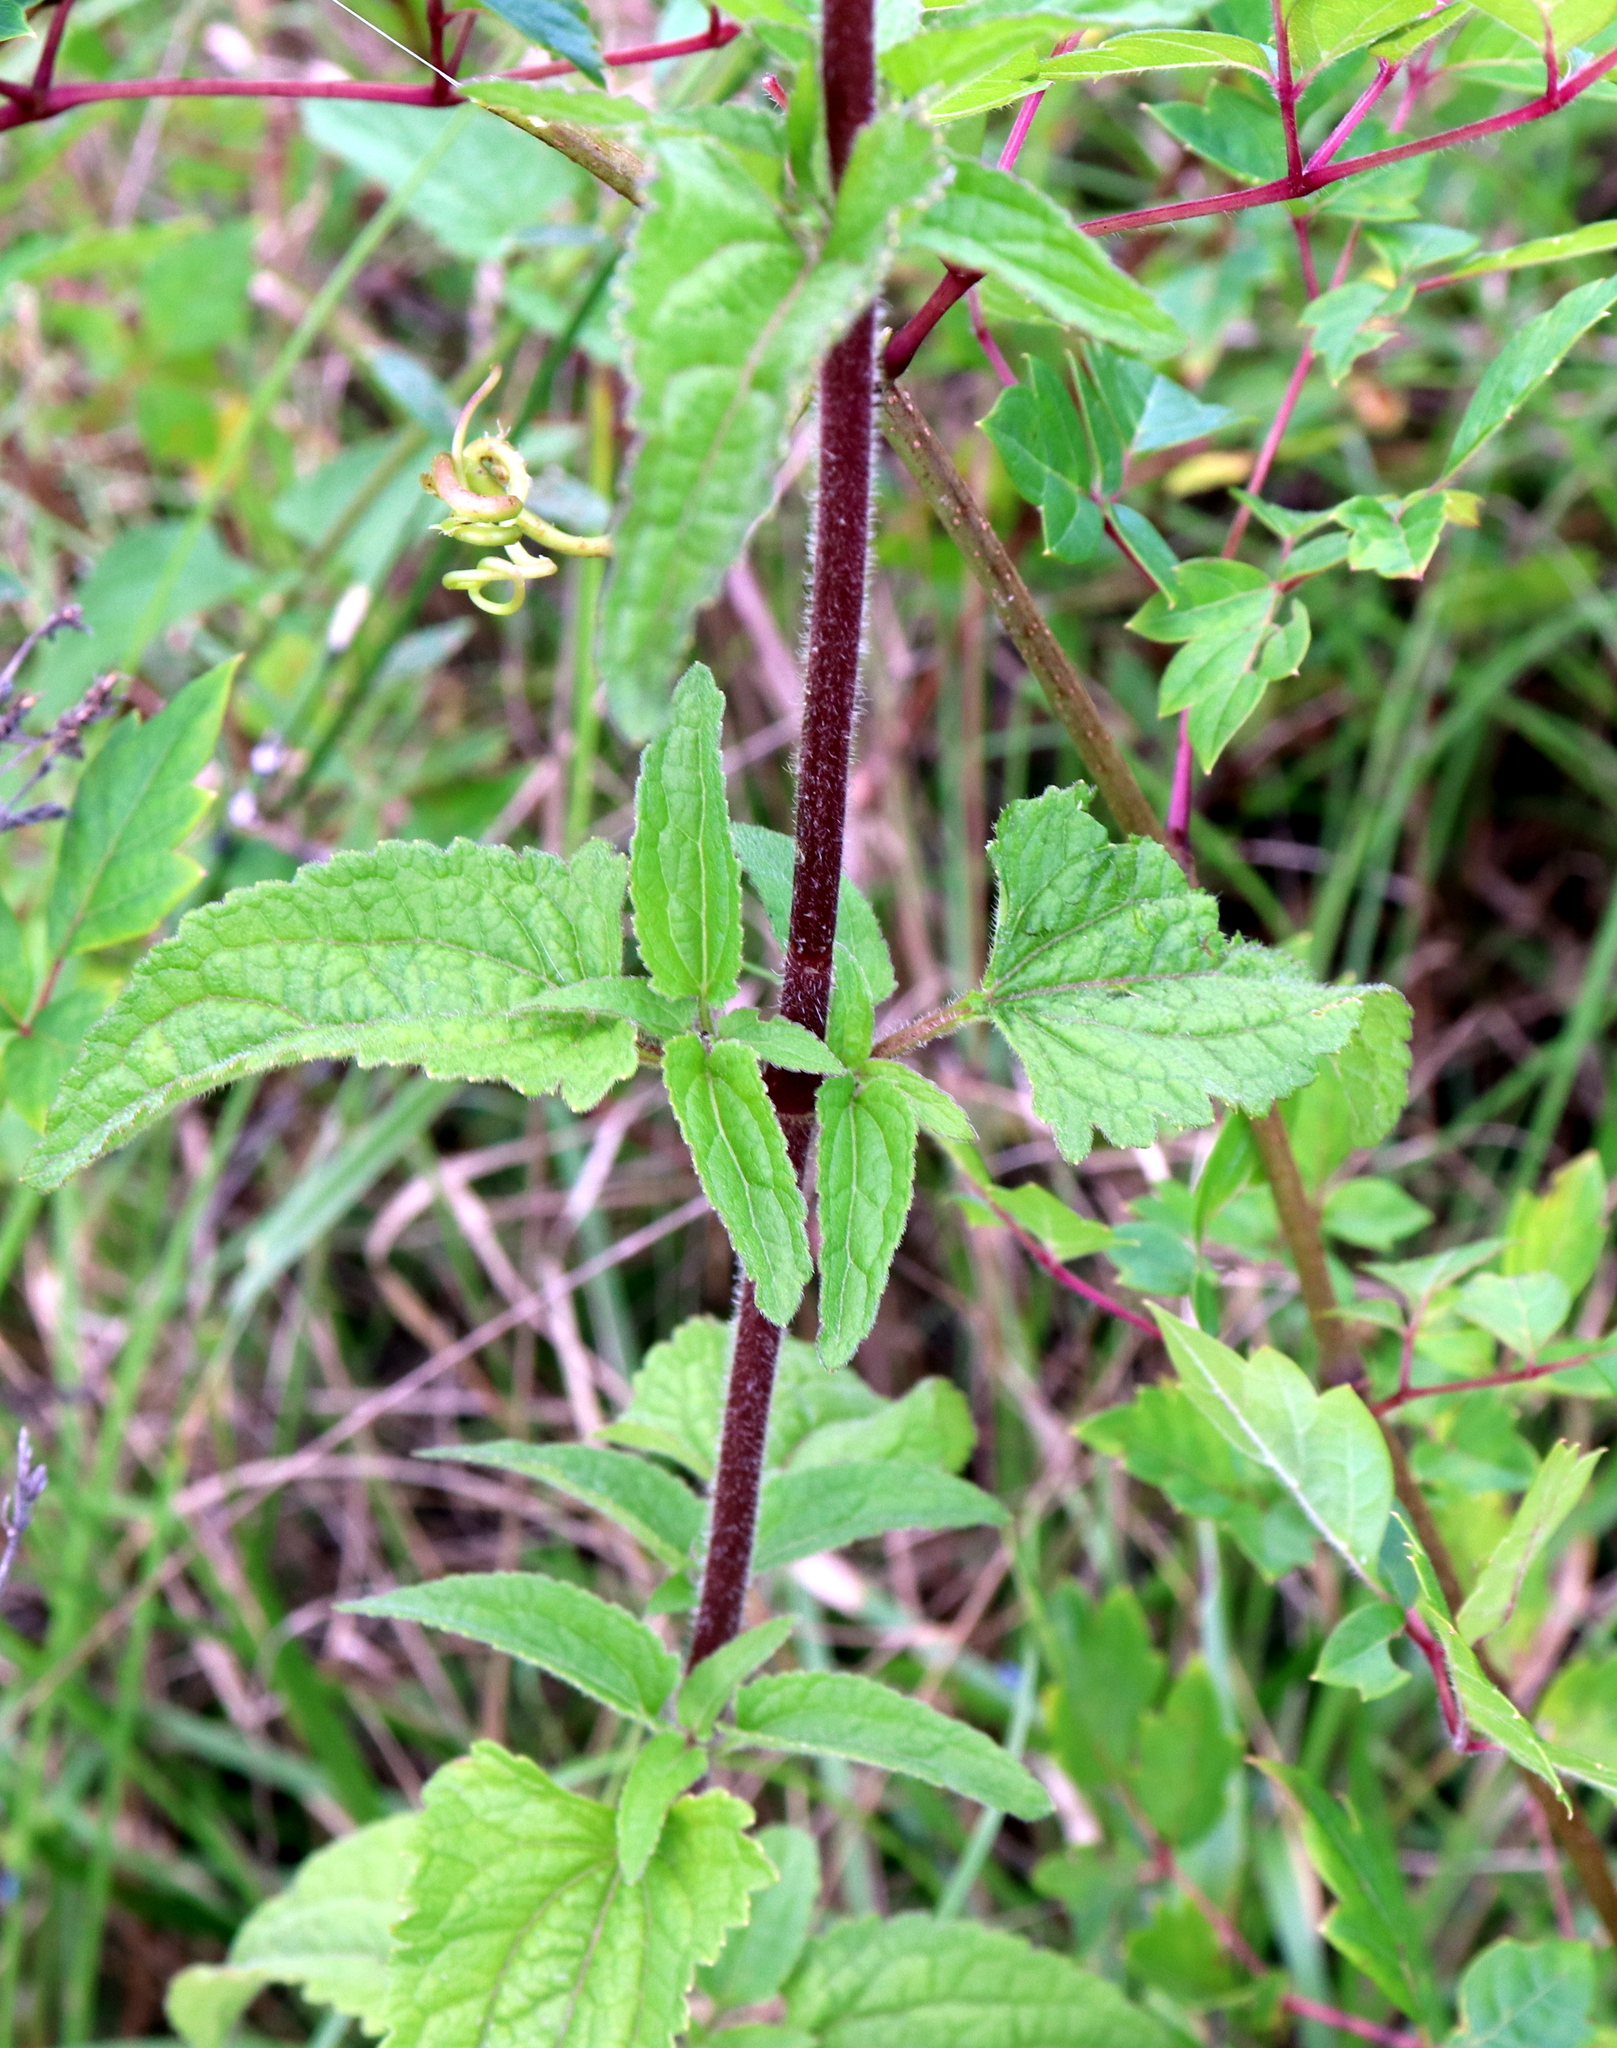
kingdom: Plantae
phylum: Tracheophyta
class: Magnoliopsida
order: Asterales
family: Asteraceae
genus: Conoclinium
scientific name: Conoclinium coelestinum
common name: Blue mistflower
